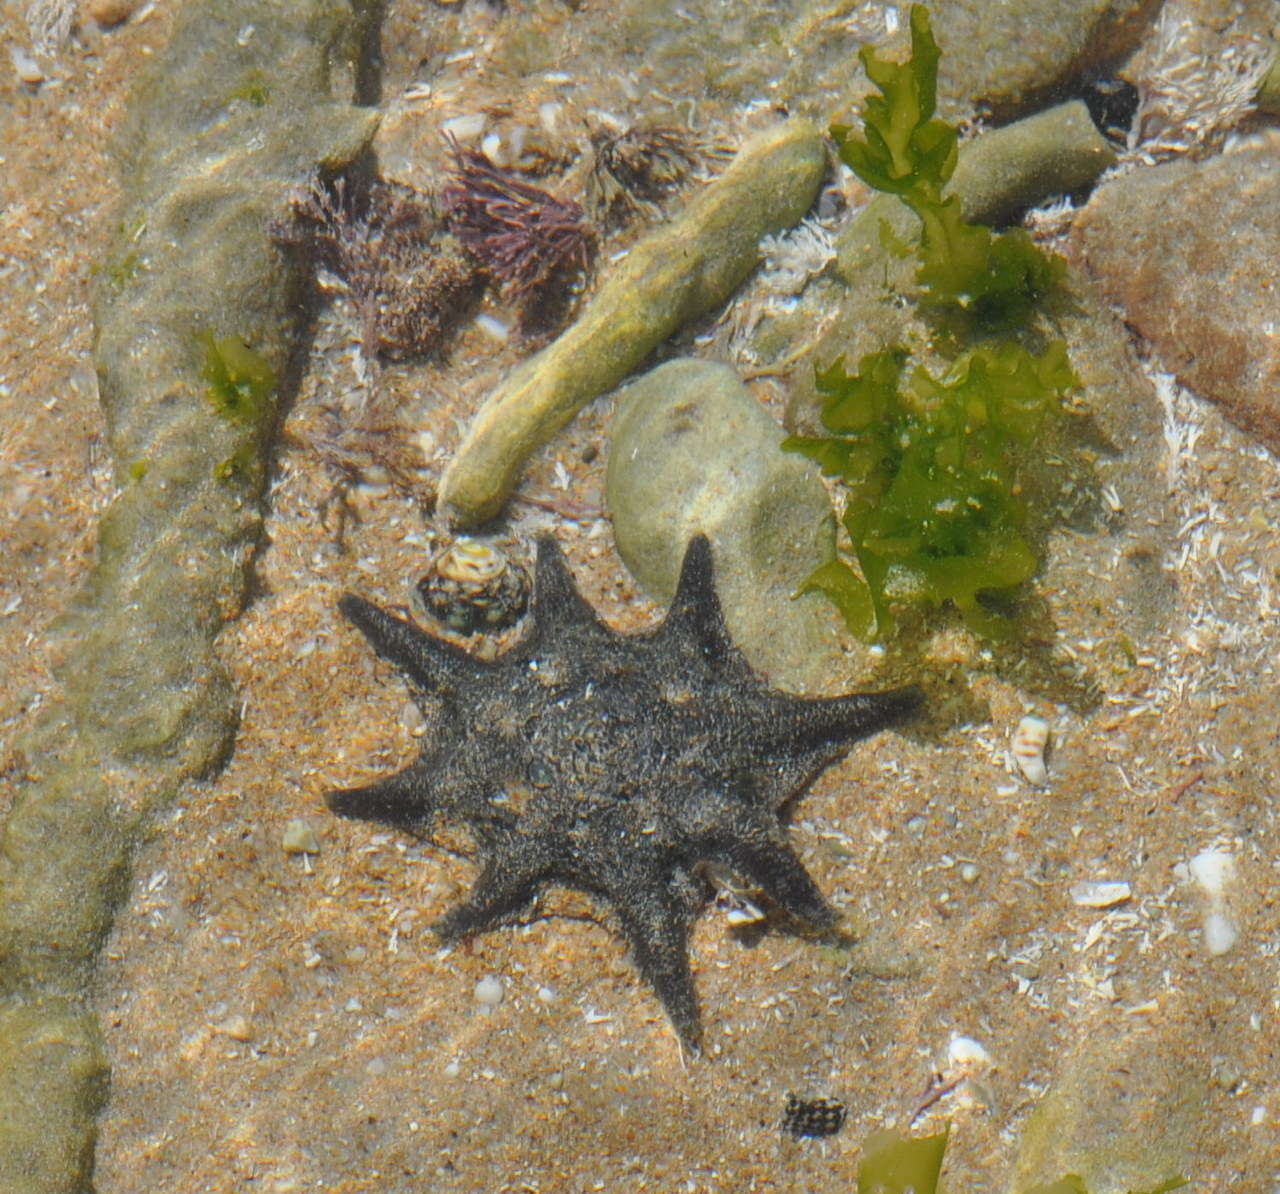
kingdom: Animalia
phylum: Echinodermata
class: Asteroidea
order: Valvatida
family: Asterinidae
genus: Meridiastra
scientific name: Meridiastra calcar
